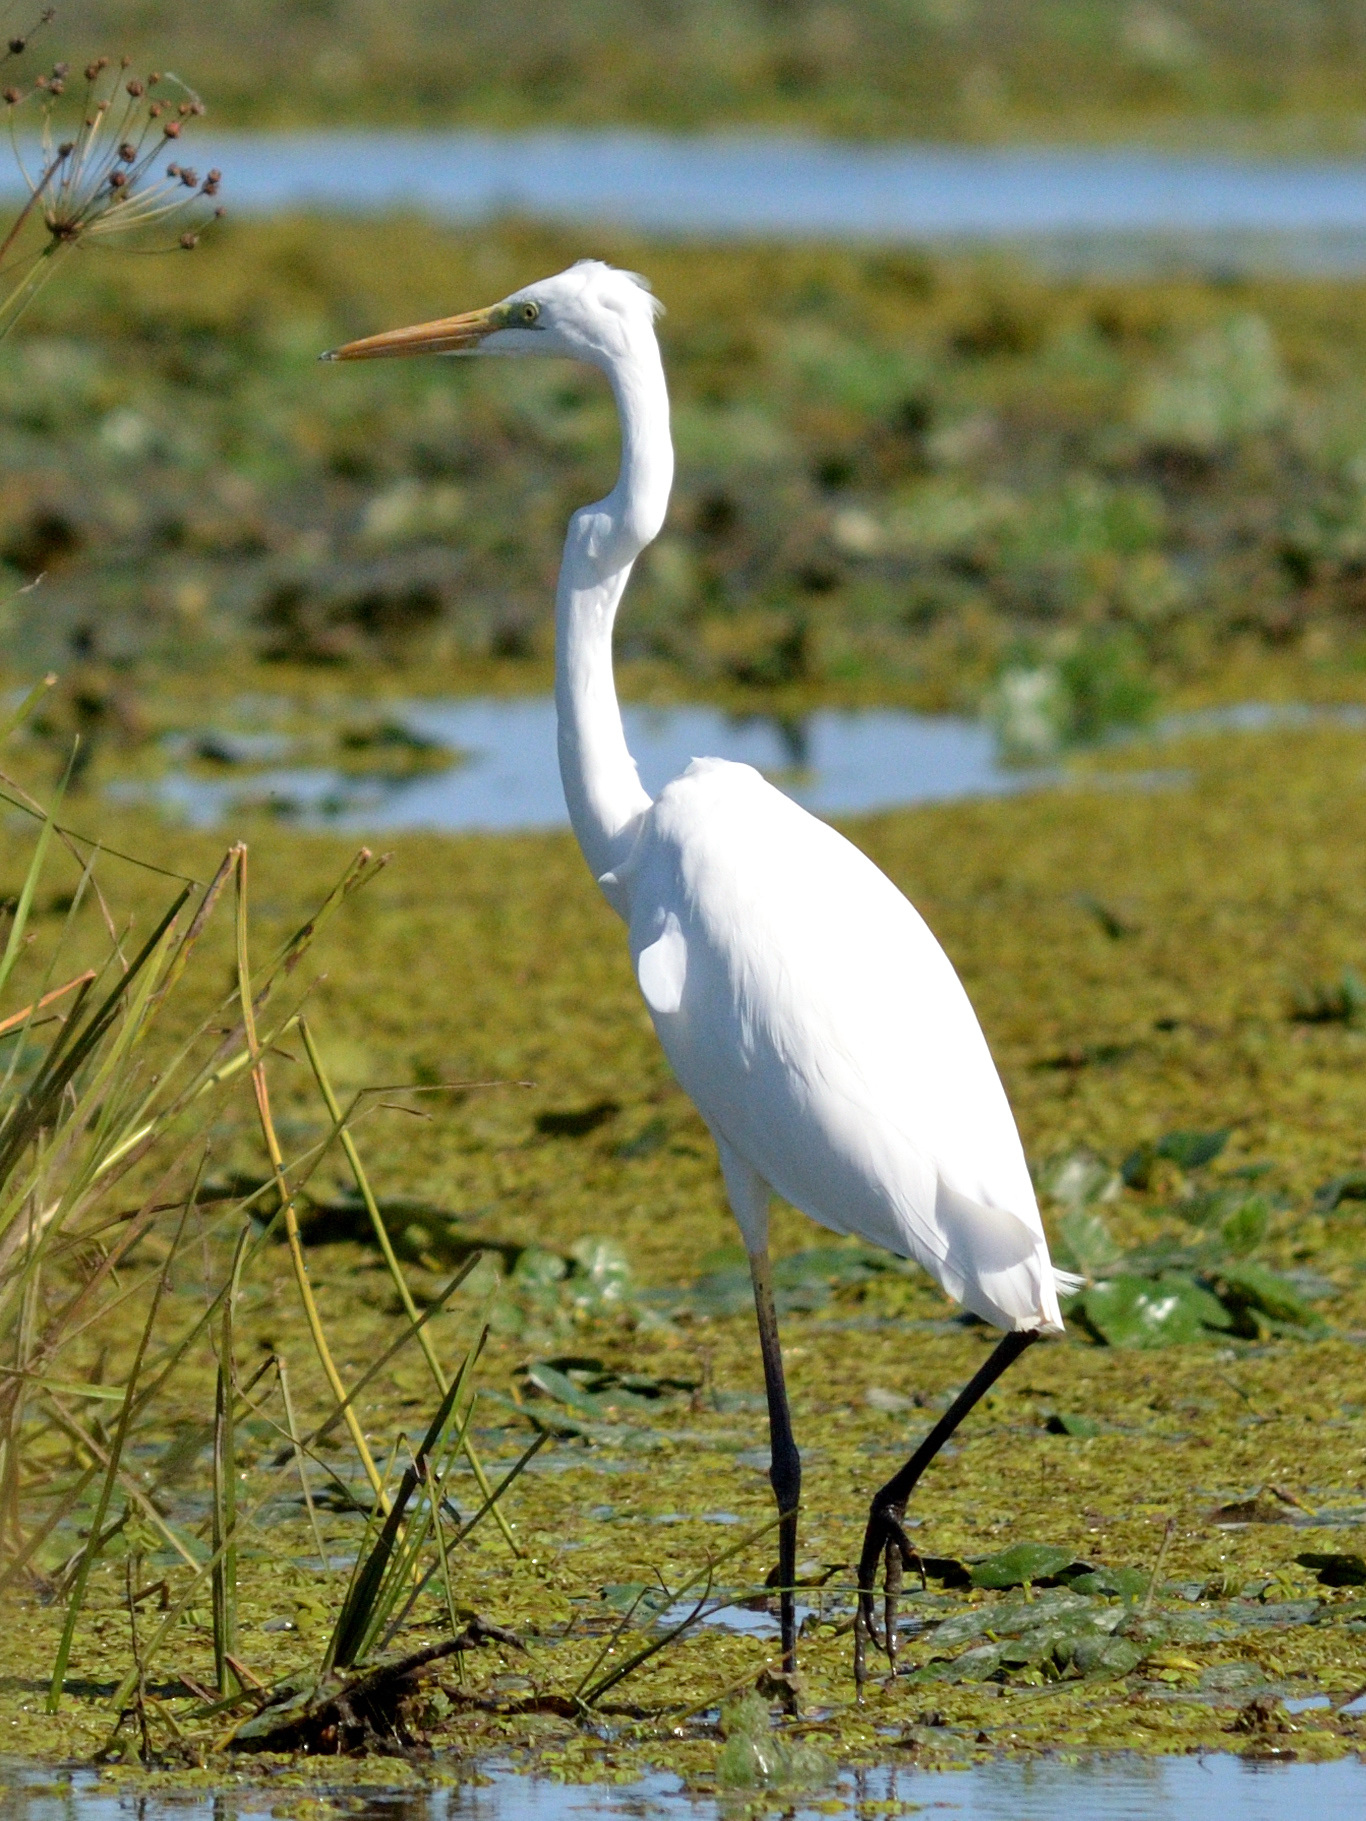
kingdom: Animalia
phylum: Chordata
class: Aves
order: Pelecaniformes
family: Ardeidae
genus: Ardea
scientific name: Ardea alba
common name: Great egret
